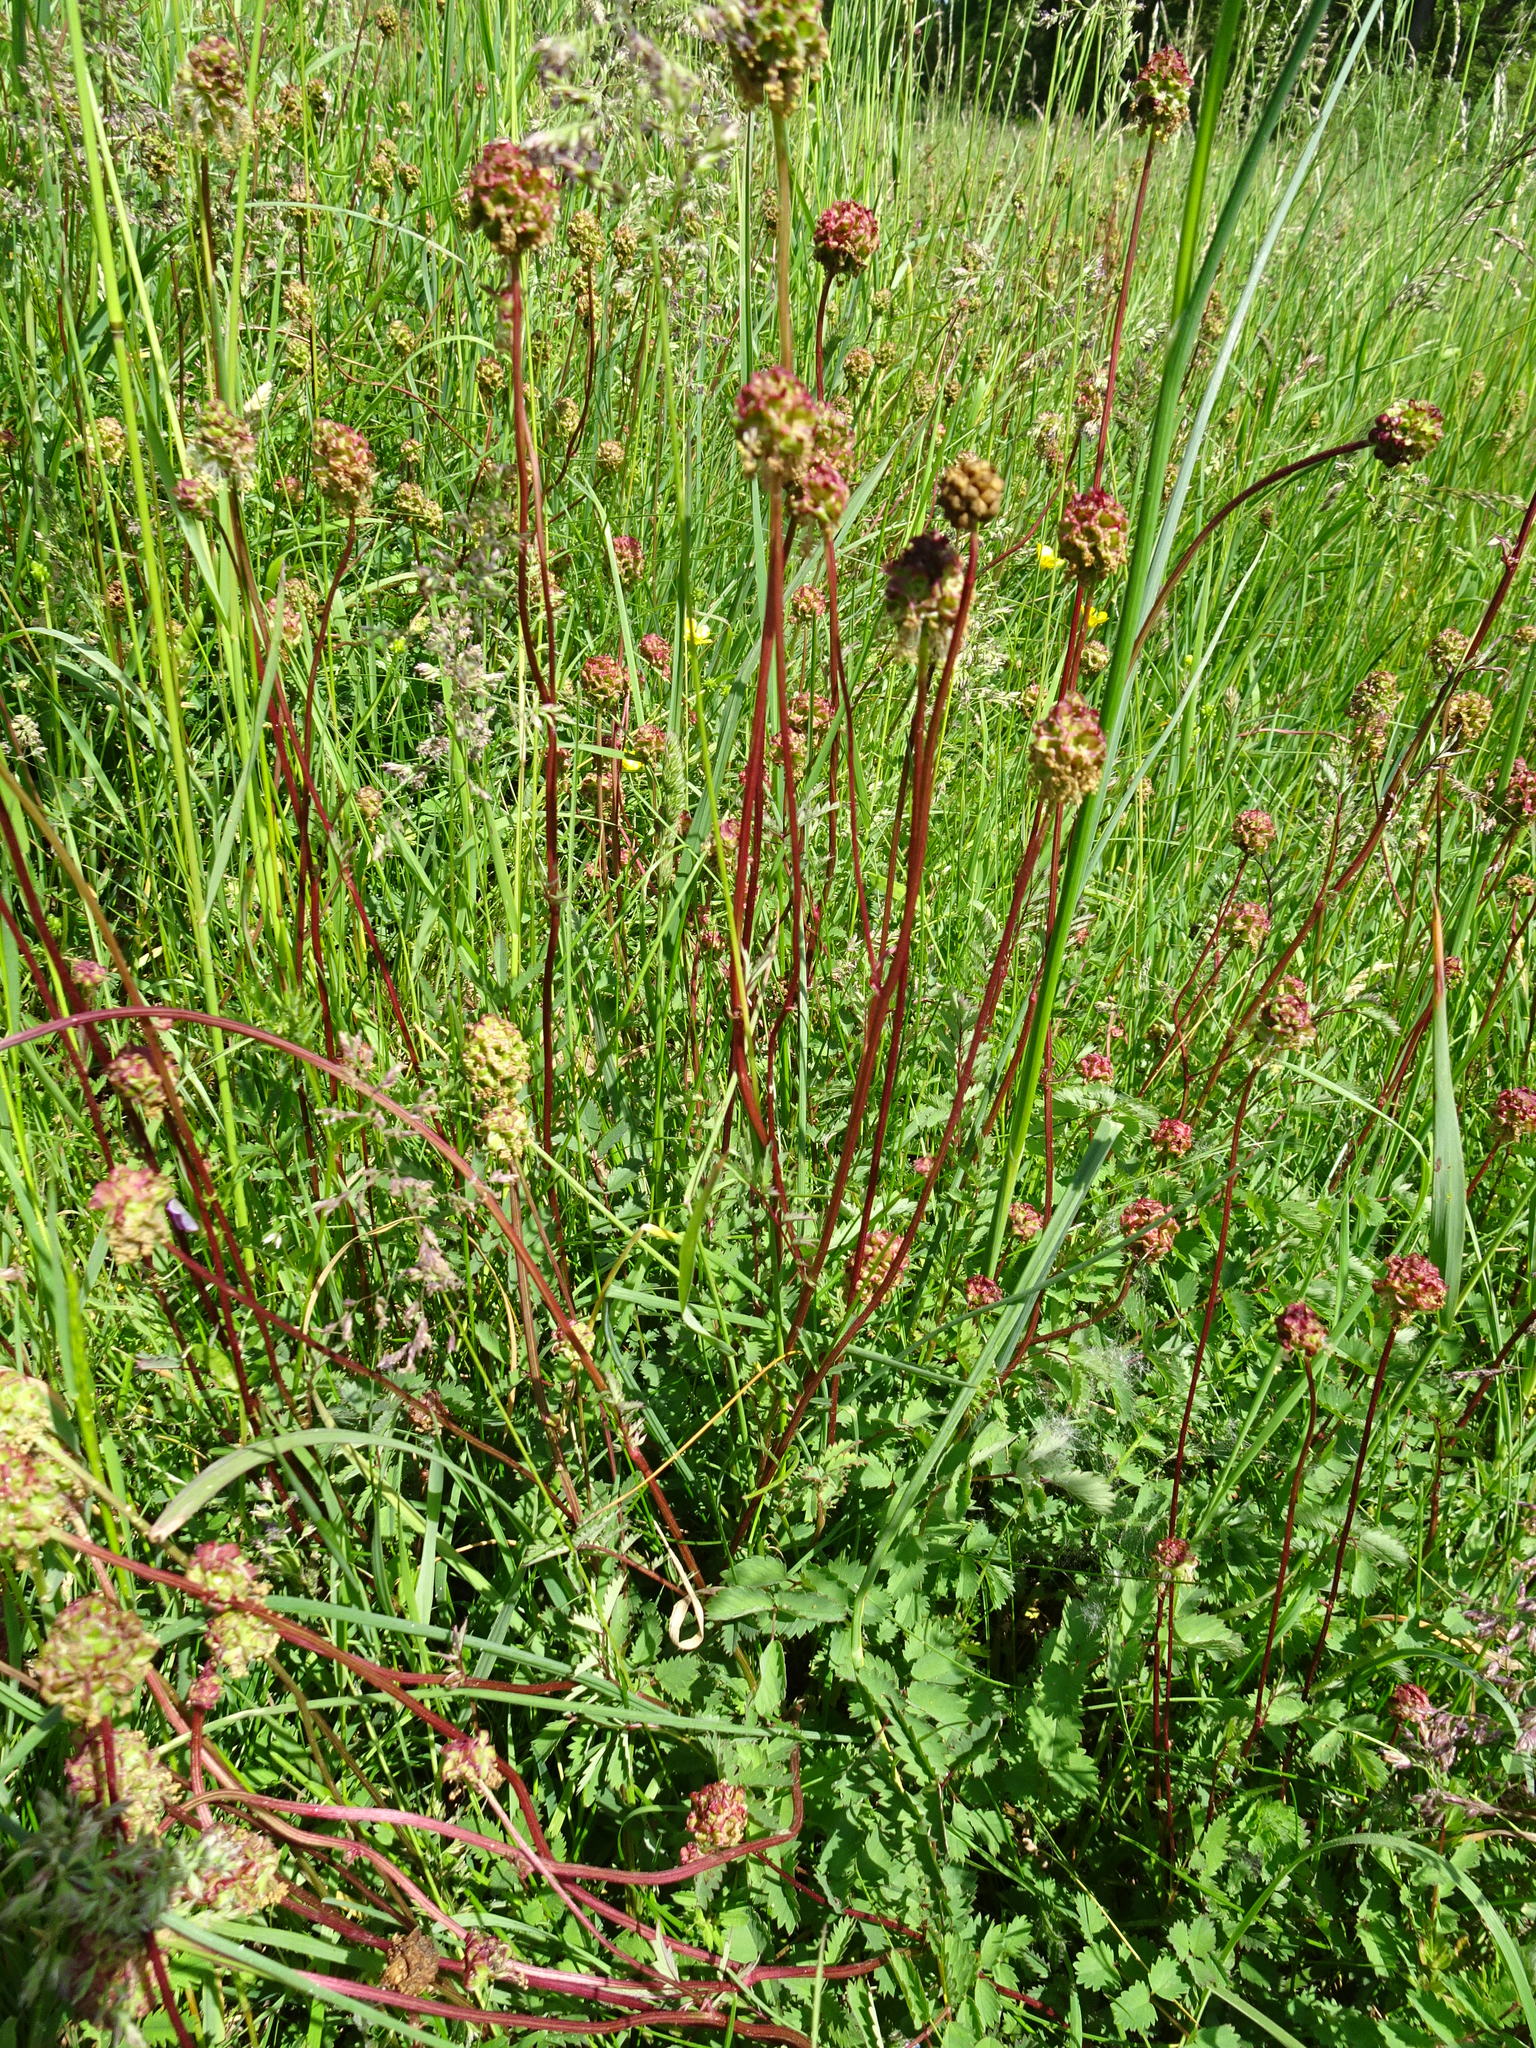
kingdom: Plantae
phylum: Tracheophyta
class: Magnoliopsida
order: Rosales
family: Rosaceae
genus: Poterium
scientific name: Poterium sanguisorba
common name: Salad burnet
